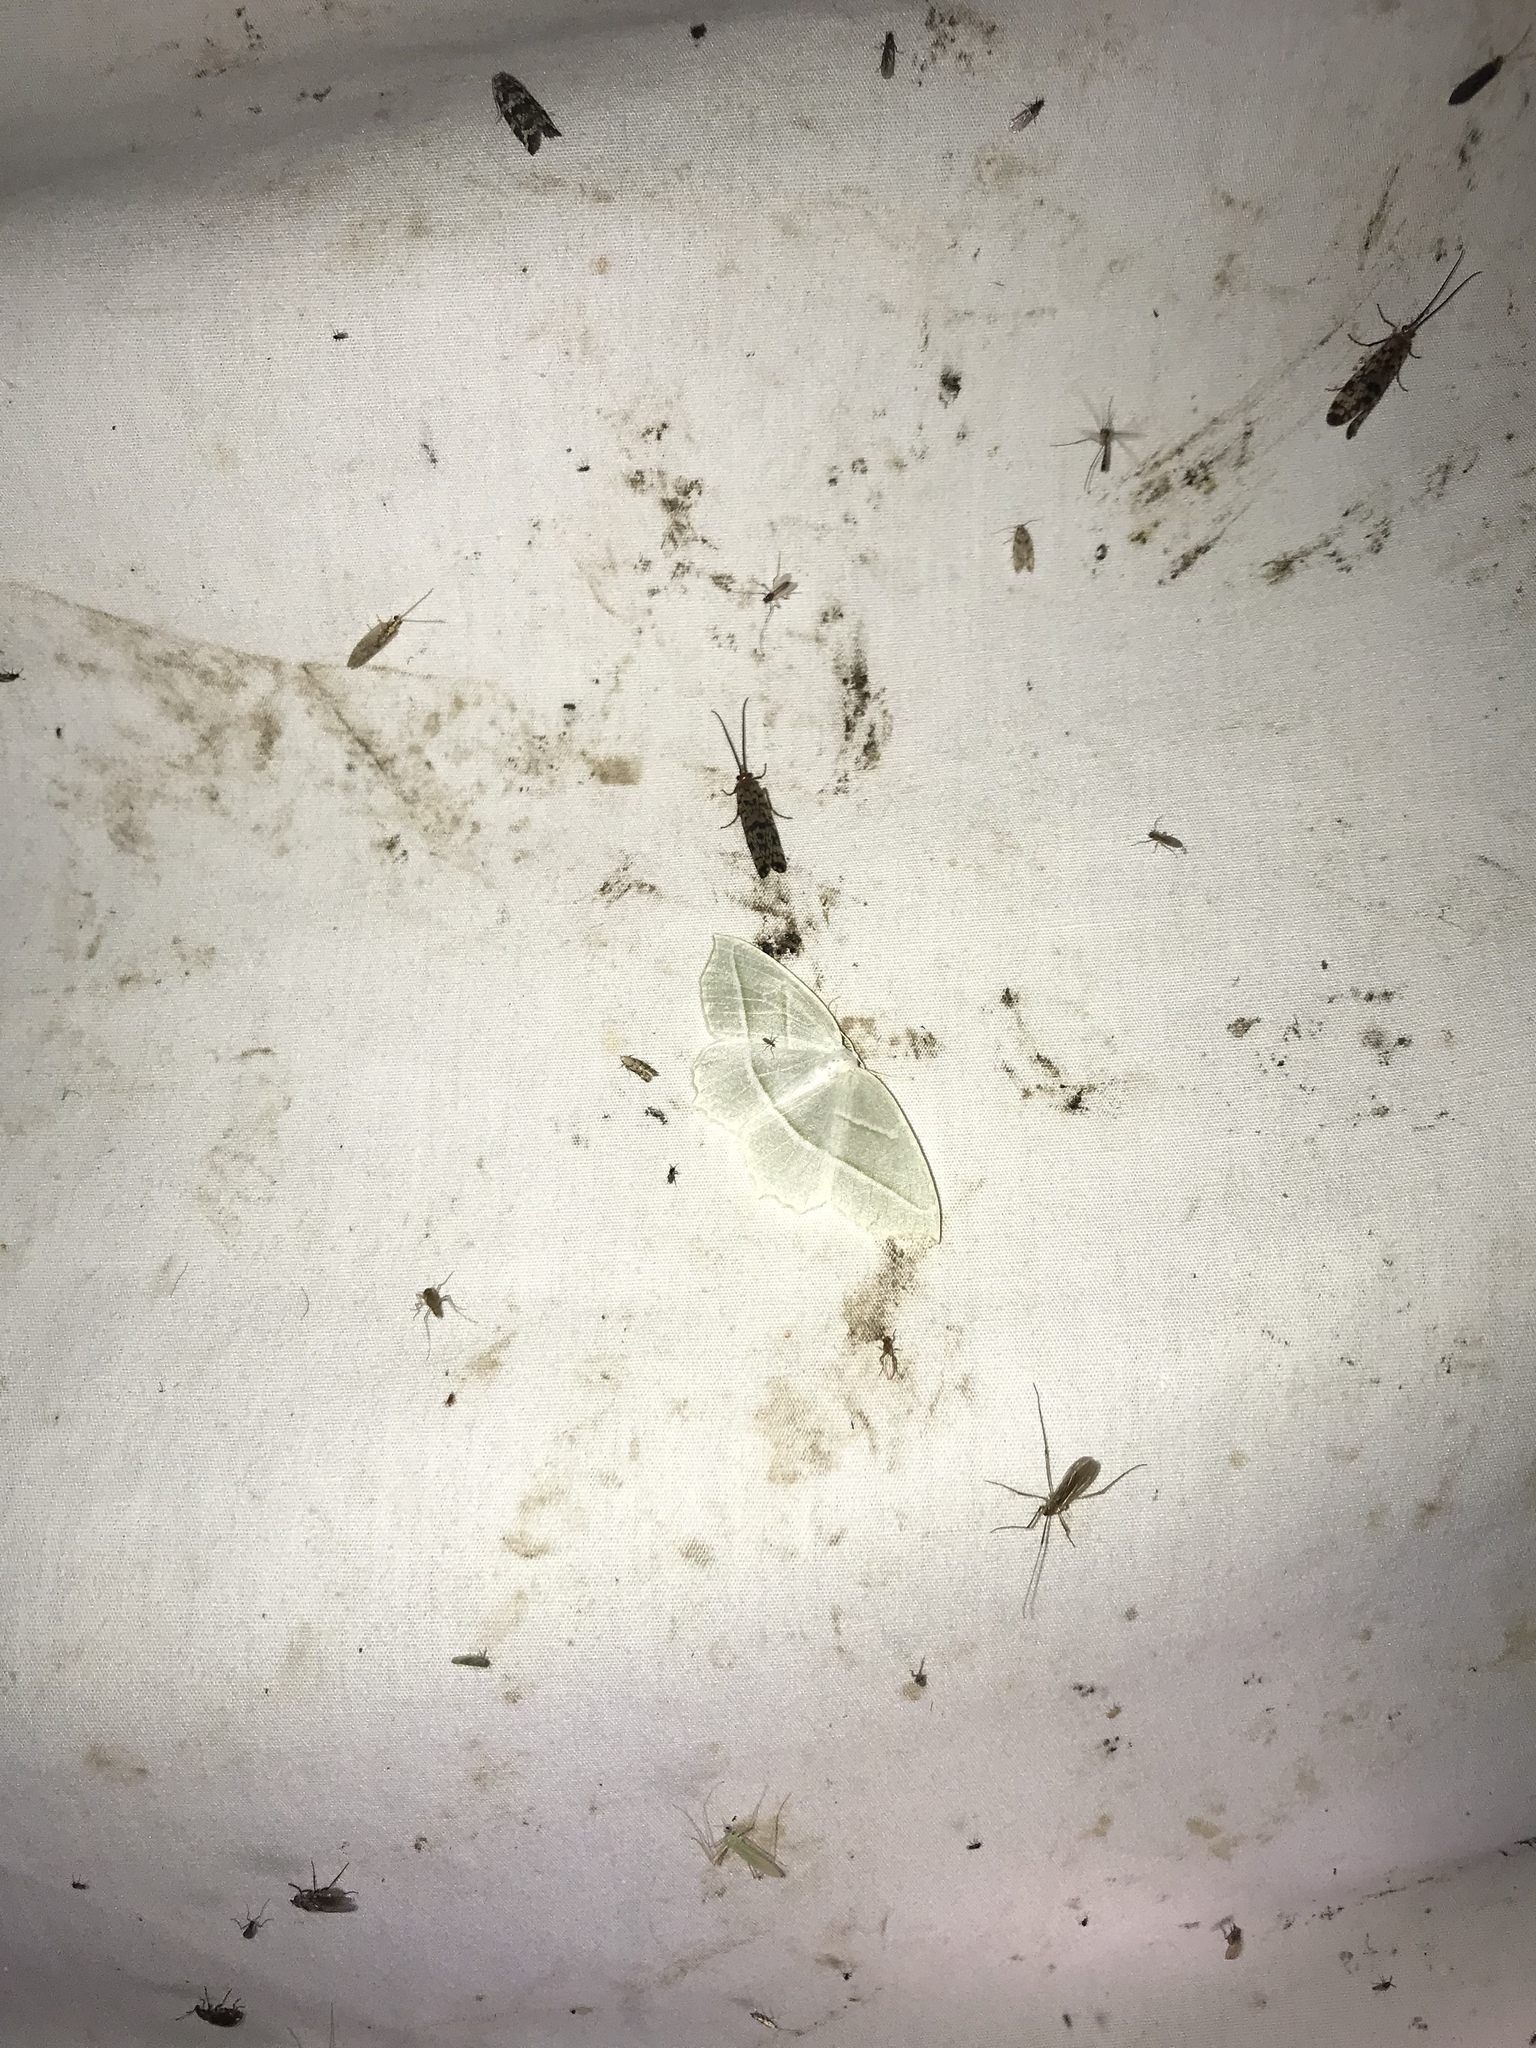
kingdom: Animalia
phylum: Arthropoda
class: Insecta
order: Lepidoptera
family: Geometridae
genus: Campaea
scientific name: Campaea perlata
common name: Fringed looper
